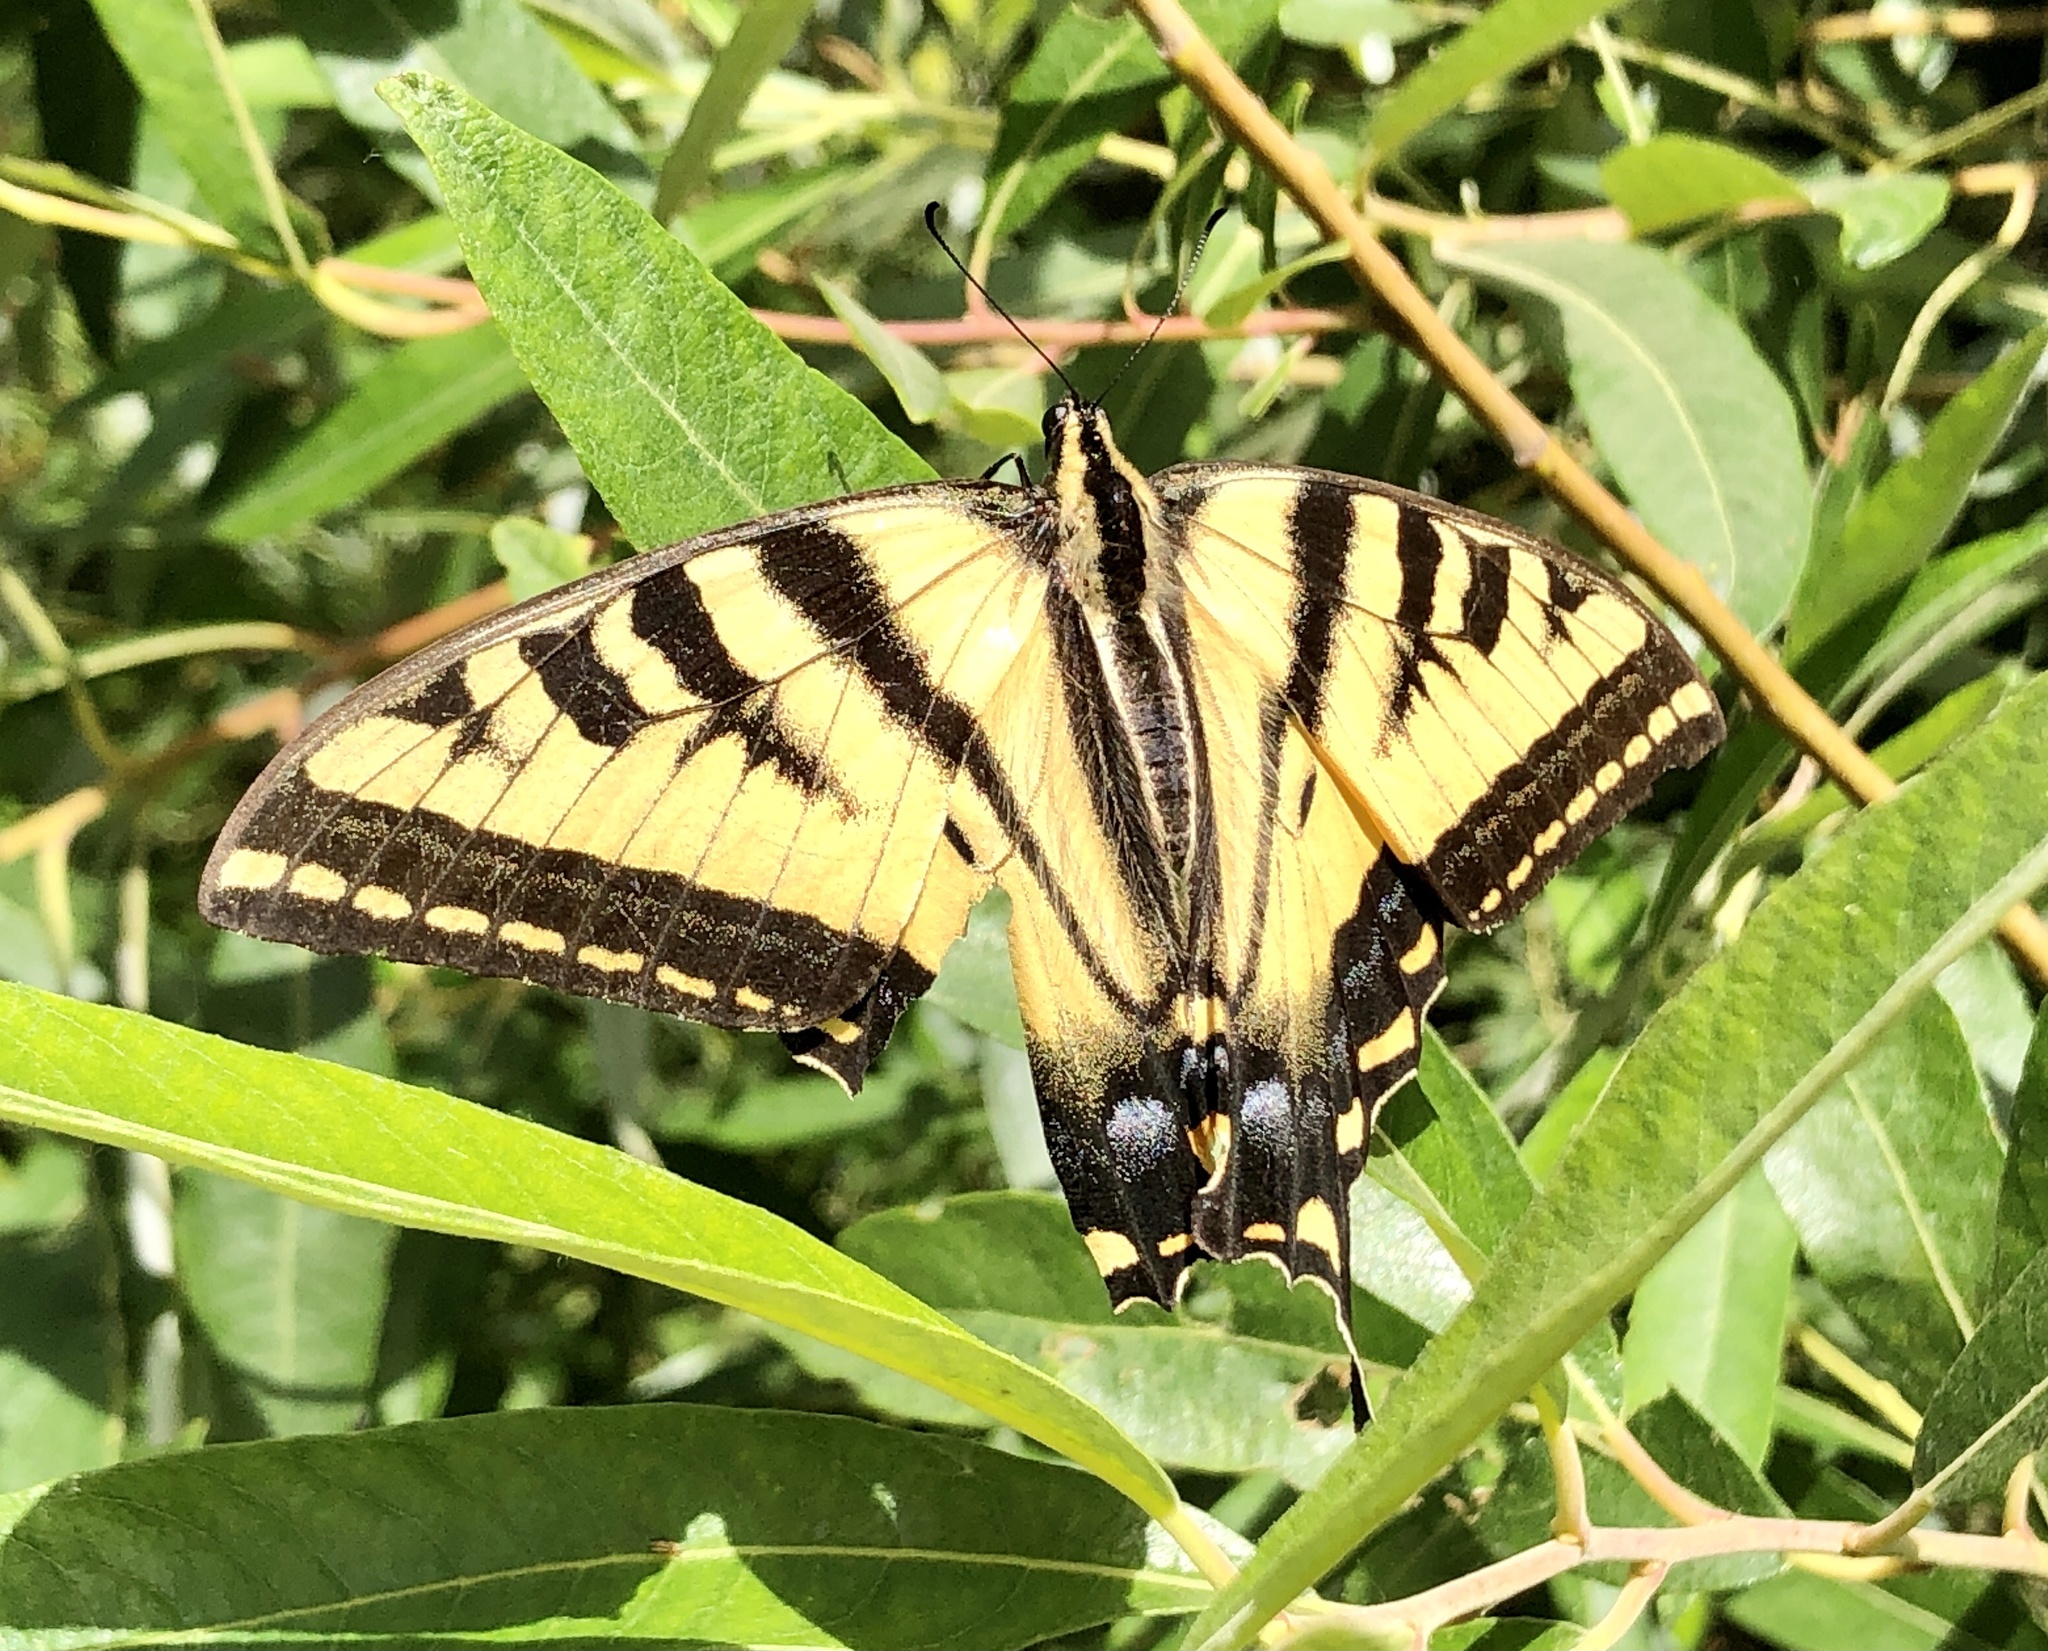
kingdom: Animalia
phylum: Arthropoda
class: Insecta
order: Lepidoptera
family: Papilionidae
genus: Papilio
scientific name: Papilio rutulus
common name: Western tiger swallowtail
